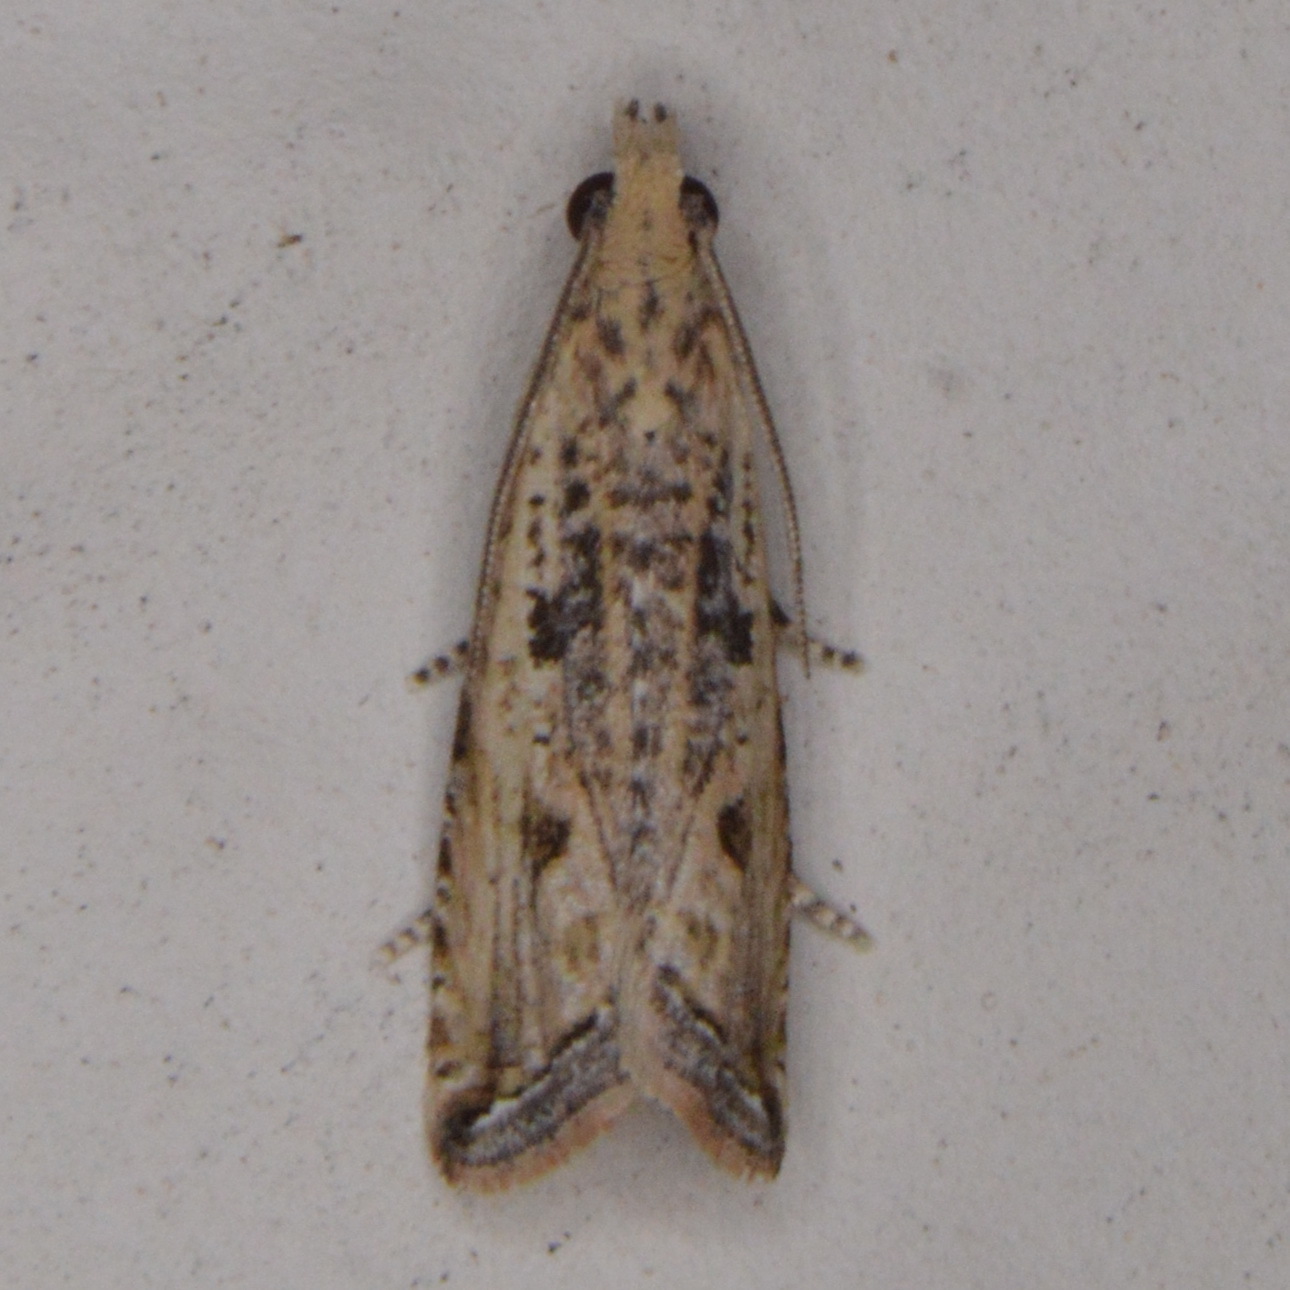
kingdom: Animalia
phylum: Arthropoda
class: Insecta
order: Lepidoptera
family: Tortricidae
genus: Bactra
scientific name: Bactra verutana
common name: Javelin moth
